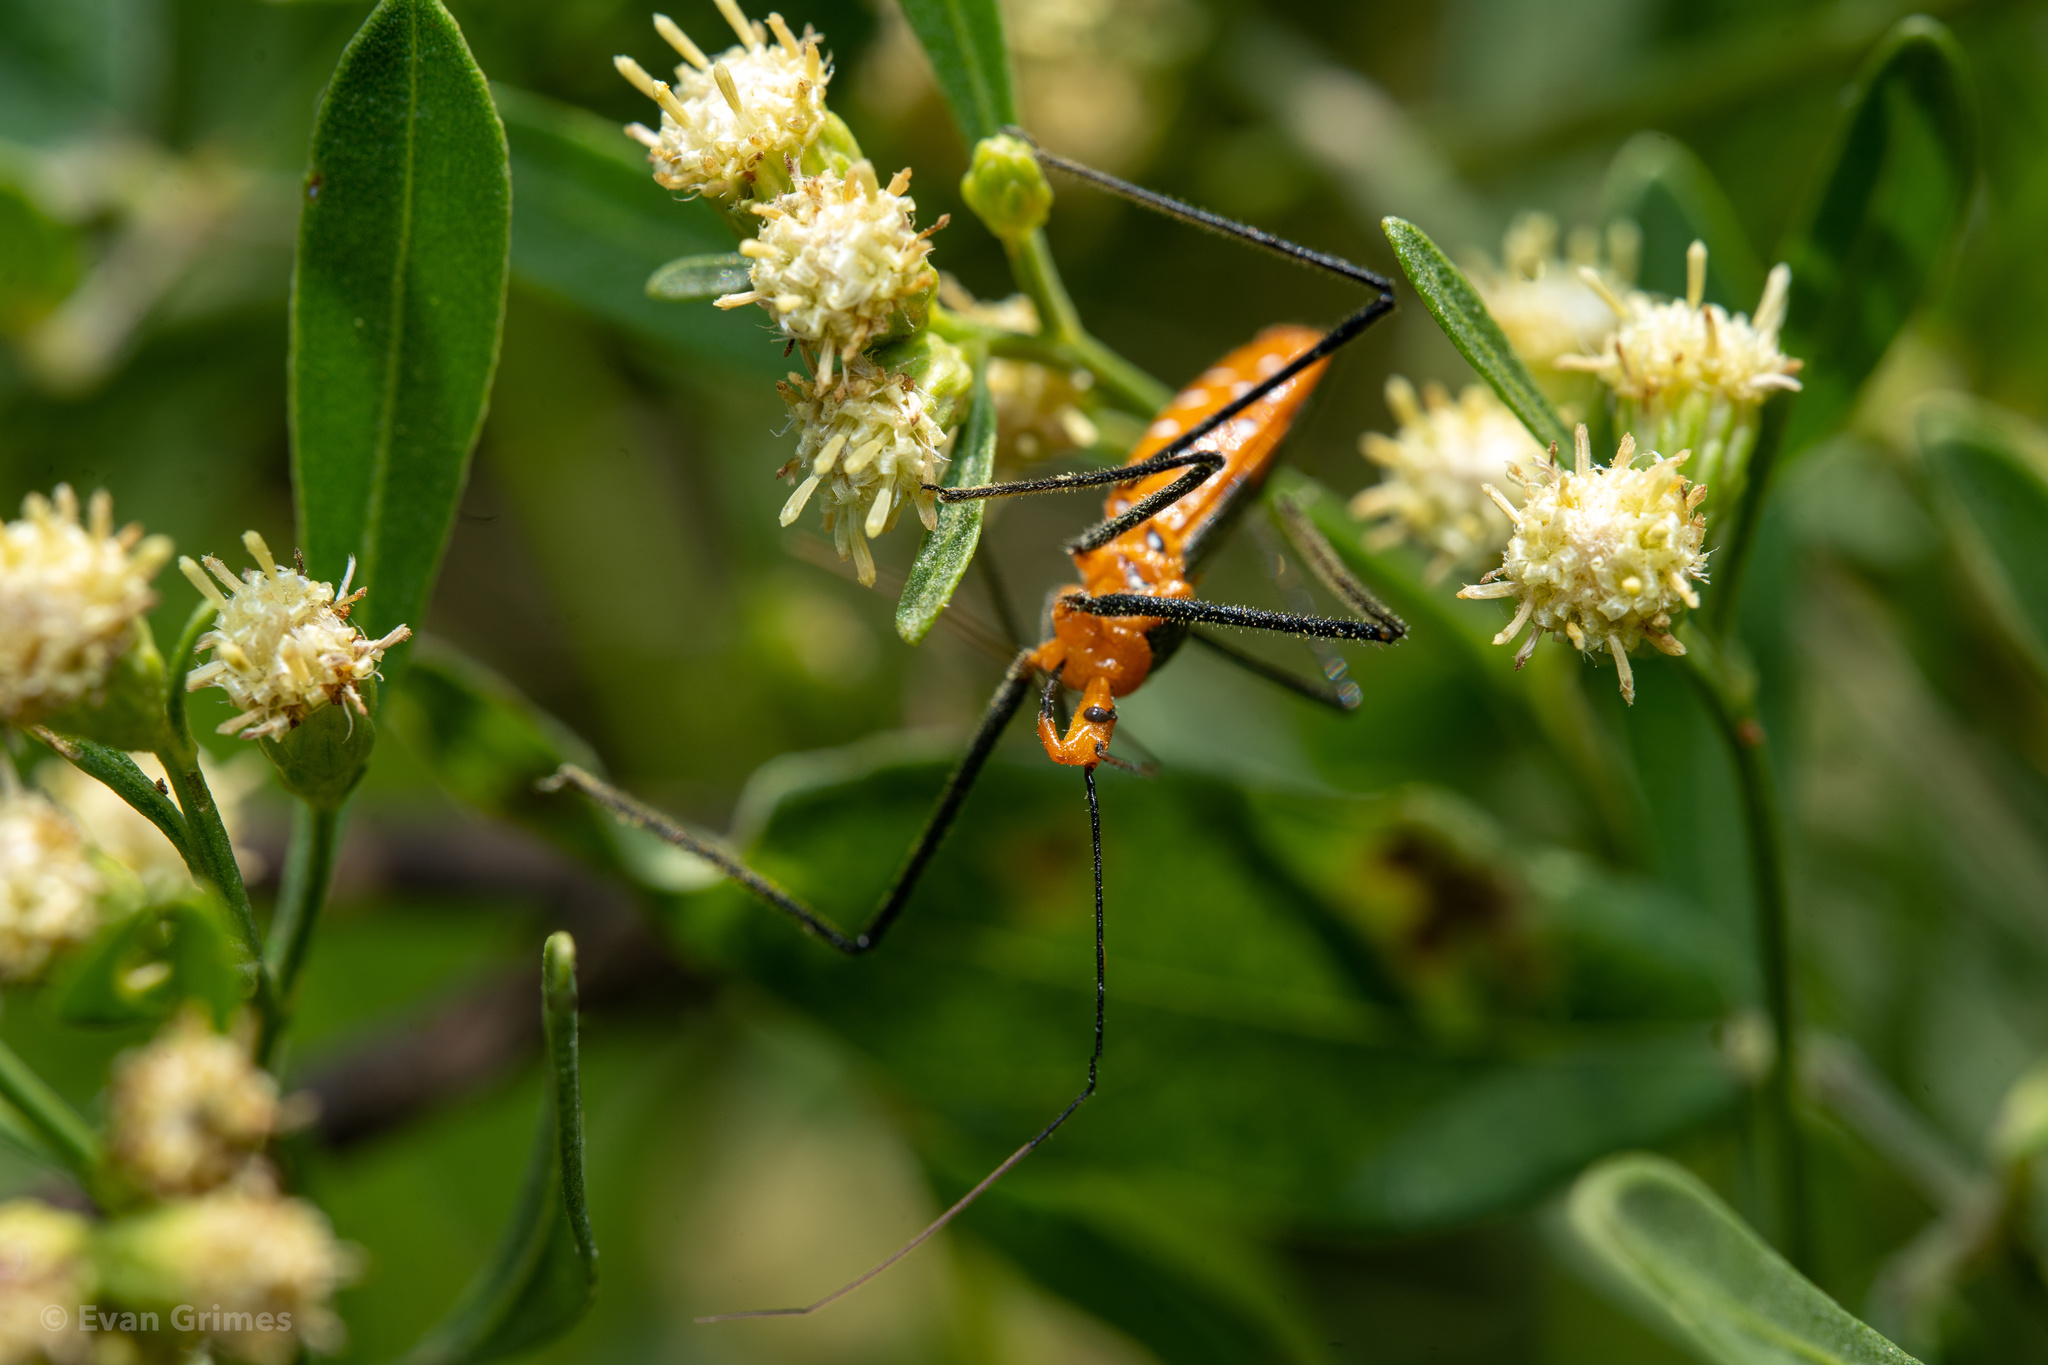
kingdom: Animalia
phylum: Arthropoda
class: Insecta
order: Hemiptera
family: Reduviidae
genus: Zelus
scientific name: Zelus longipes
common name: Milkweed assassin bug
